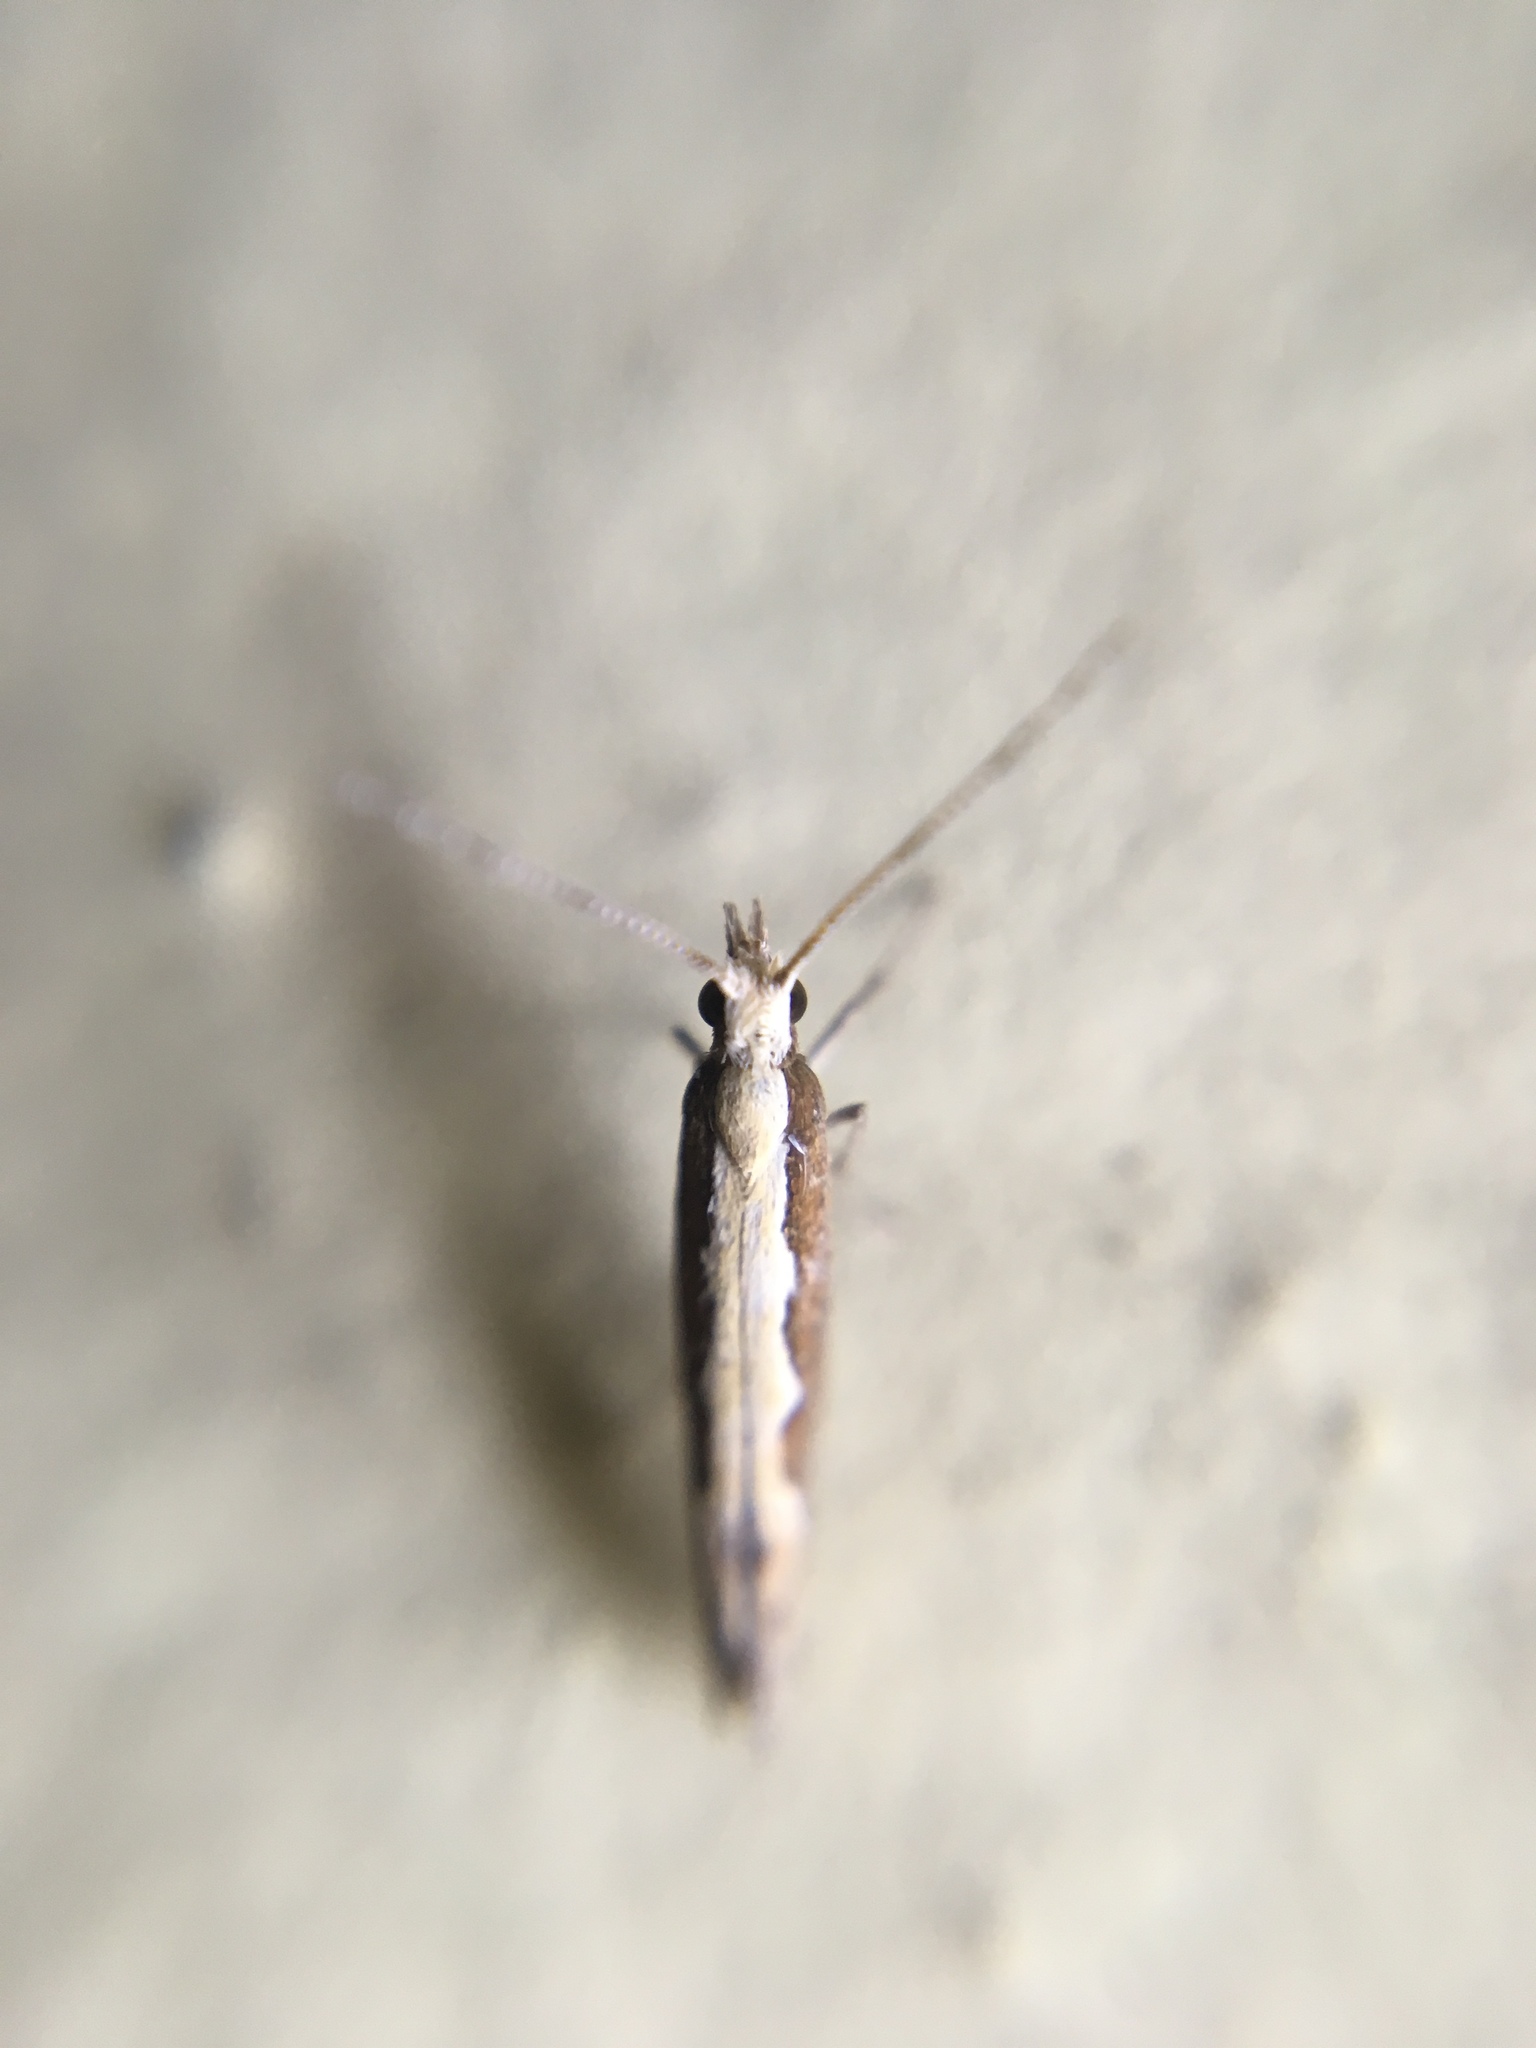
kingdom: Animalia
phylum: Arthropoda
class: Insecta
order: Lepidoptera
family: Plutellidae
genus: Plutella
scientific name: Plutella xylostella
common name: Diamond-back moth
